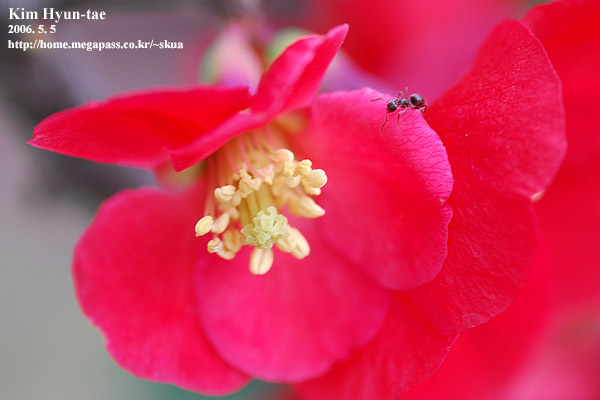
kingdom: Plantae
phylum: Tracheophyta
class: Magnoliopsida
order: Rosales
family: Rosaceae
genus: Chaenomeles
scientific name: Chaenomeles speciosa
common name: Japanese quince
